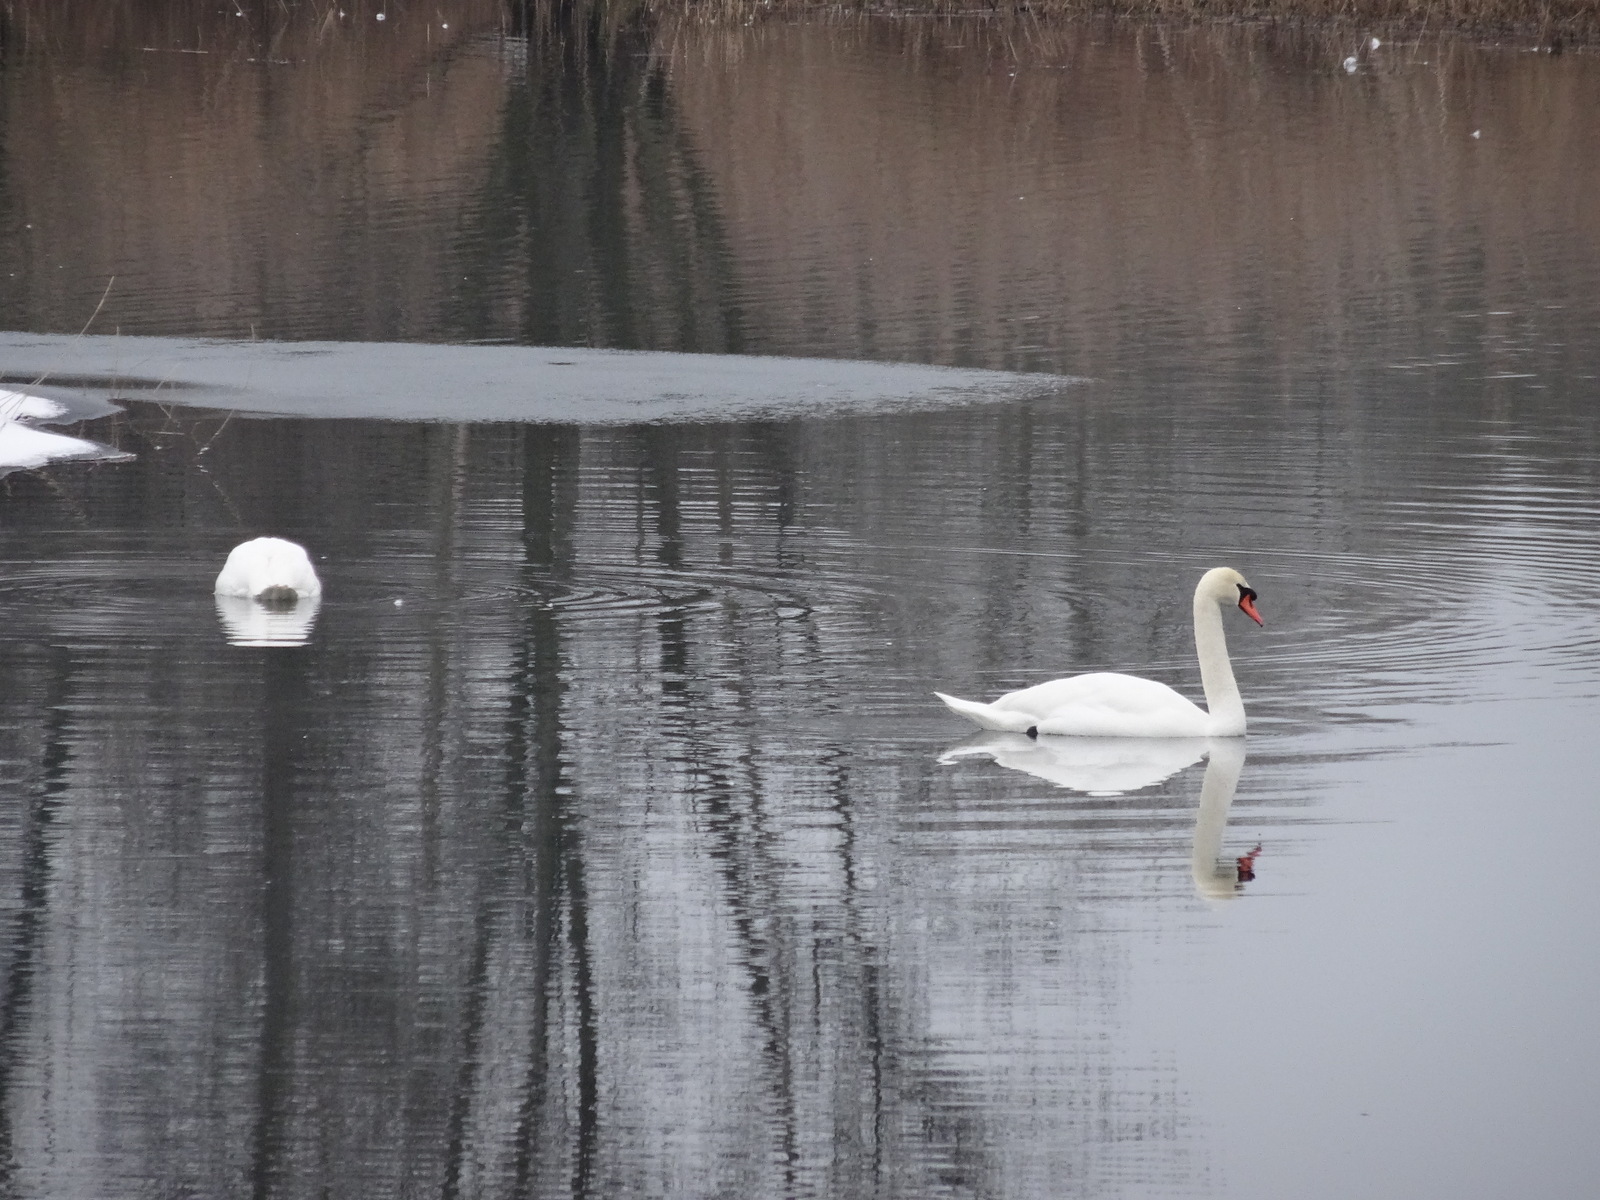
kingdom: Animalia
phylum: Chordata
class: Aves
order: Anseriformes
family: Anatidae
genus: Cygnus
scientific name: Cygnus olor
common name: Mute swan
